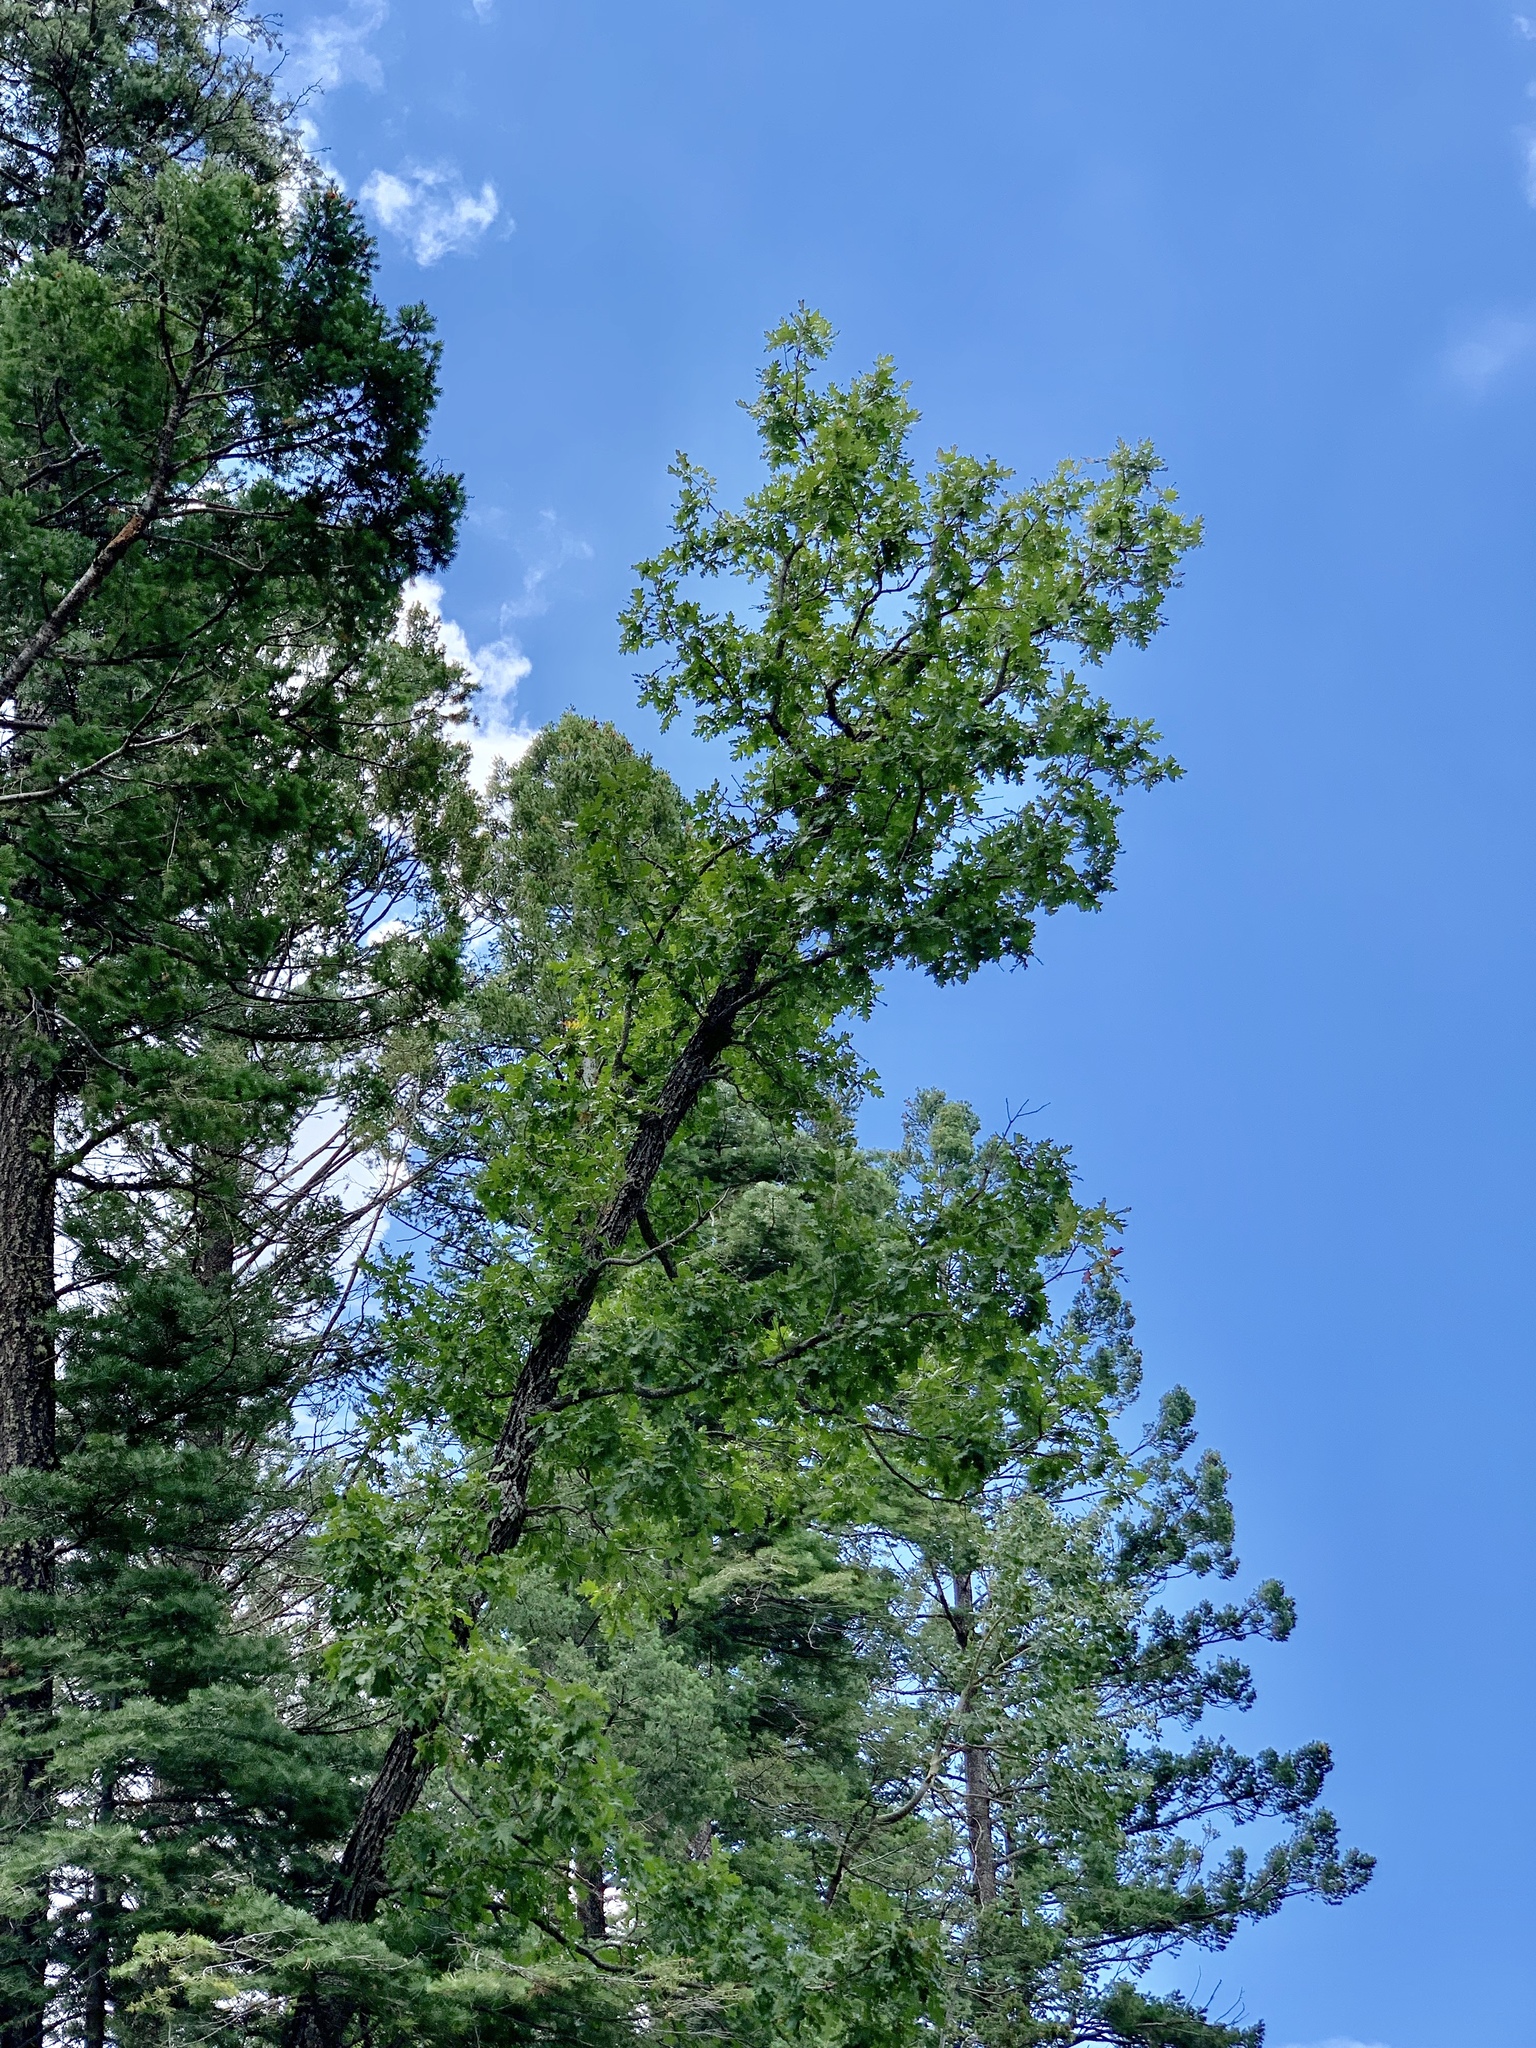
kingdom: Plantae
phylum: Tracheophyta
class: Magnoliopsida
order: Fagales
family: Fagaceae
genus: Quercus
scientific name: Quercus gambelii
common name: Gambel oak
